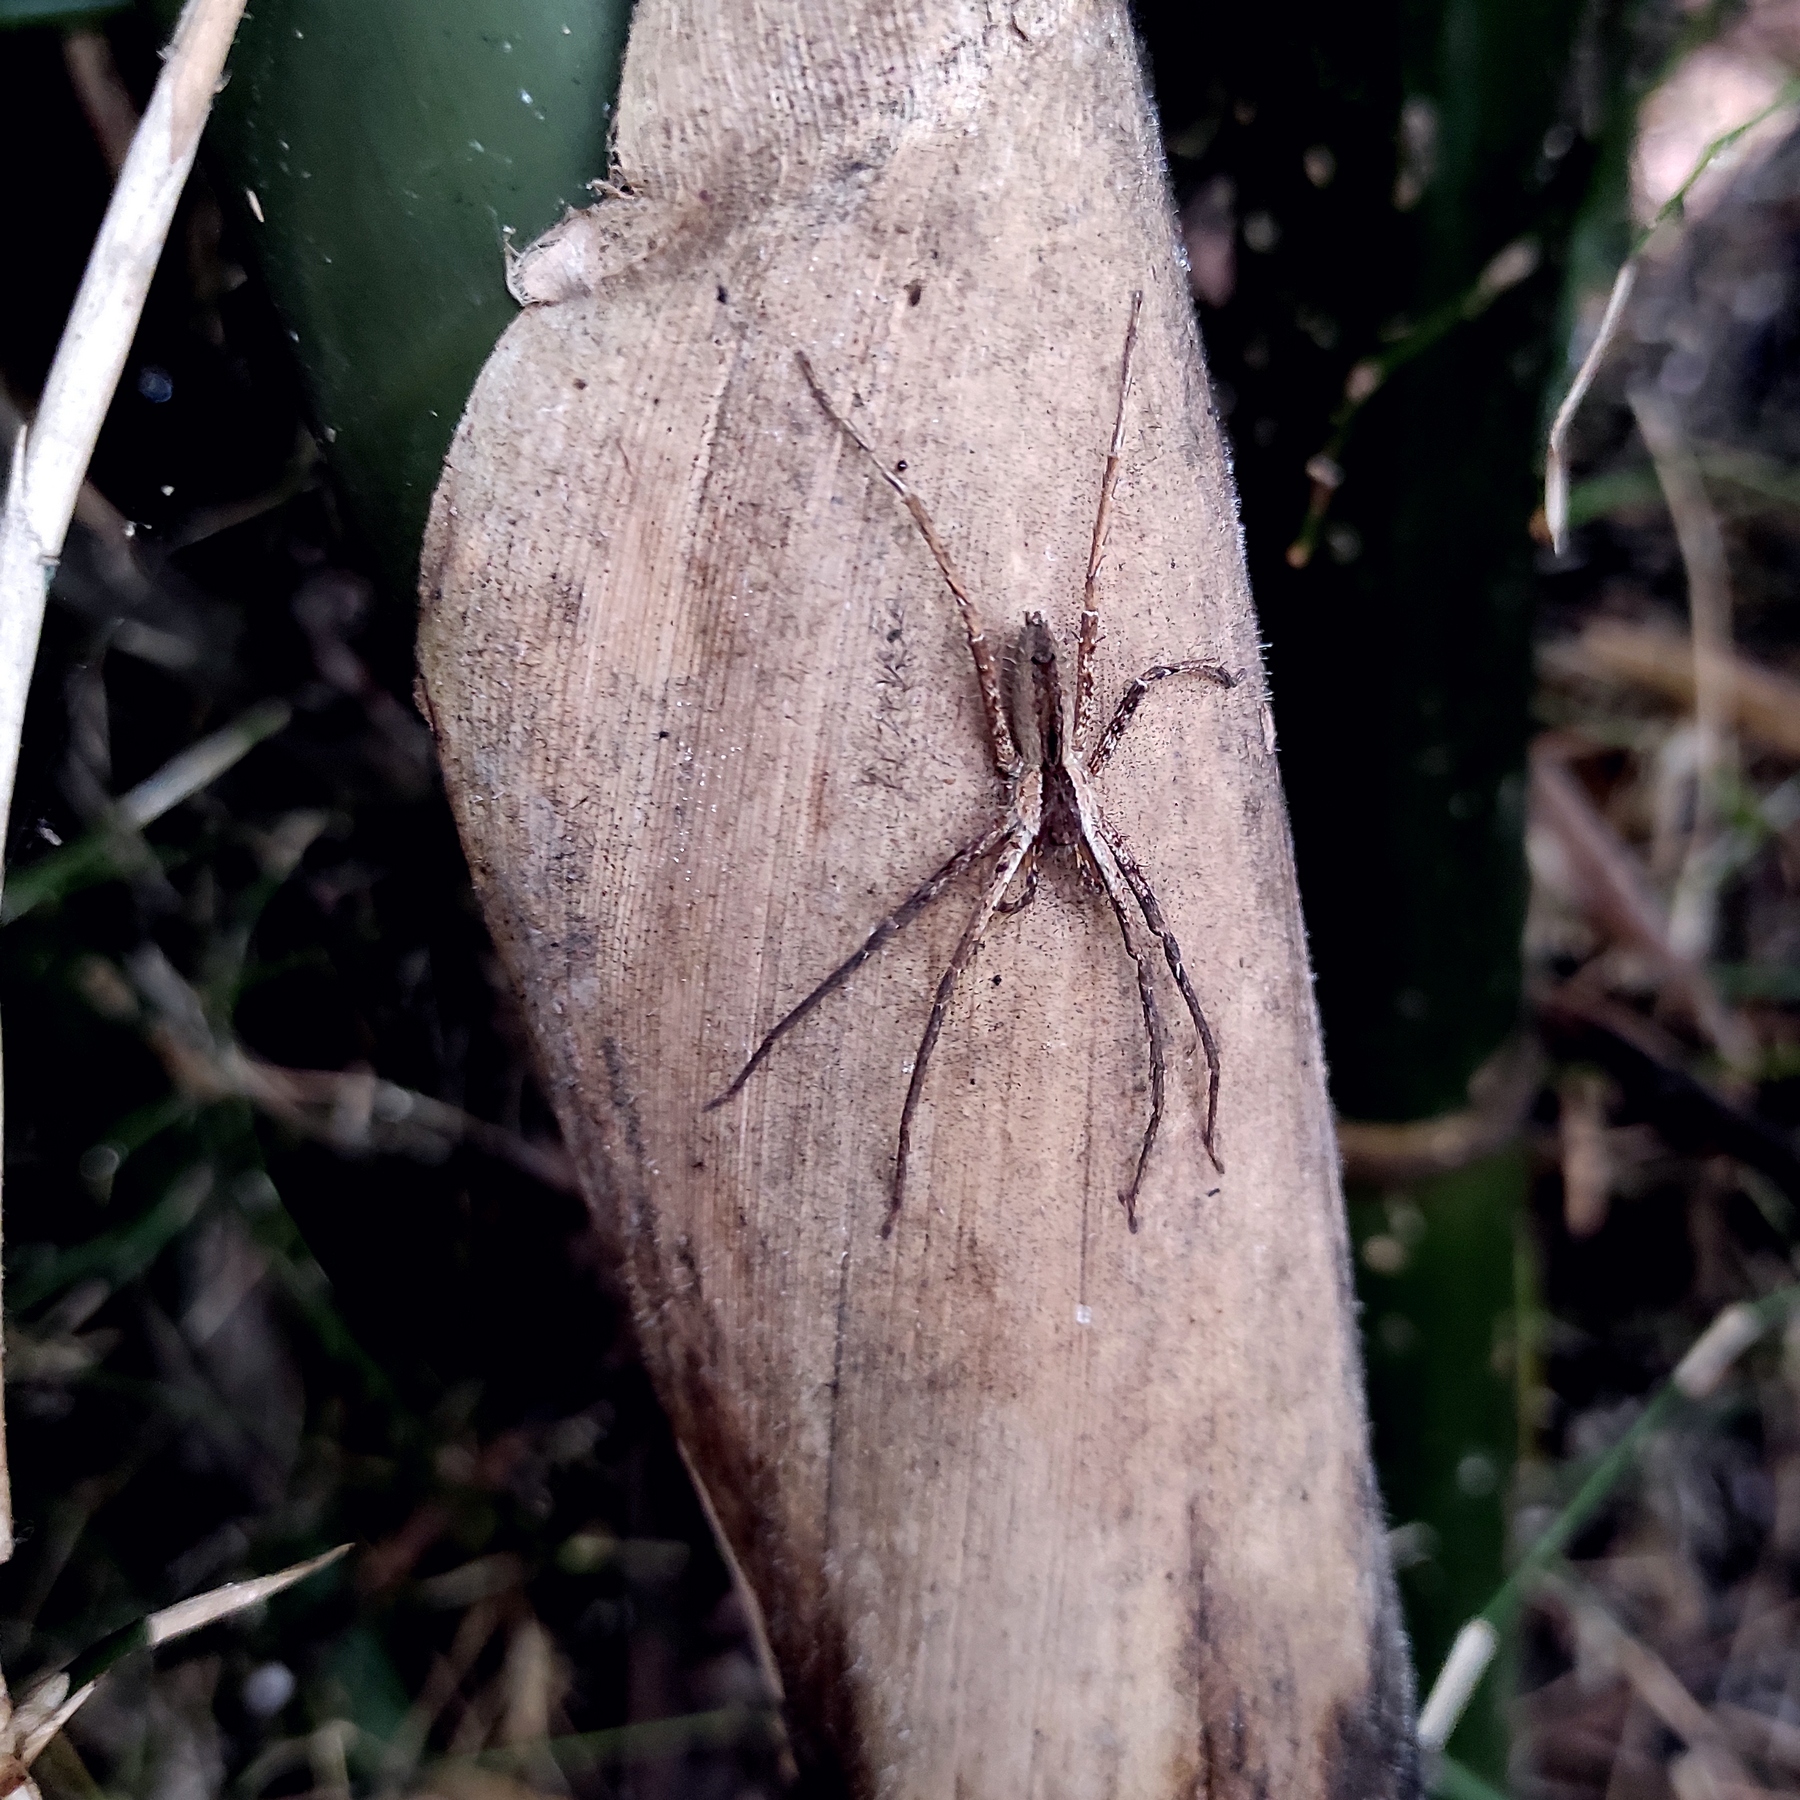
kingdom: Animalia
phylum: Arthropoda
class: Arachnida
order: Araneae
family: Sparassidae
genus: Heteropoda
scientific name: Heteropoda ocyalina
